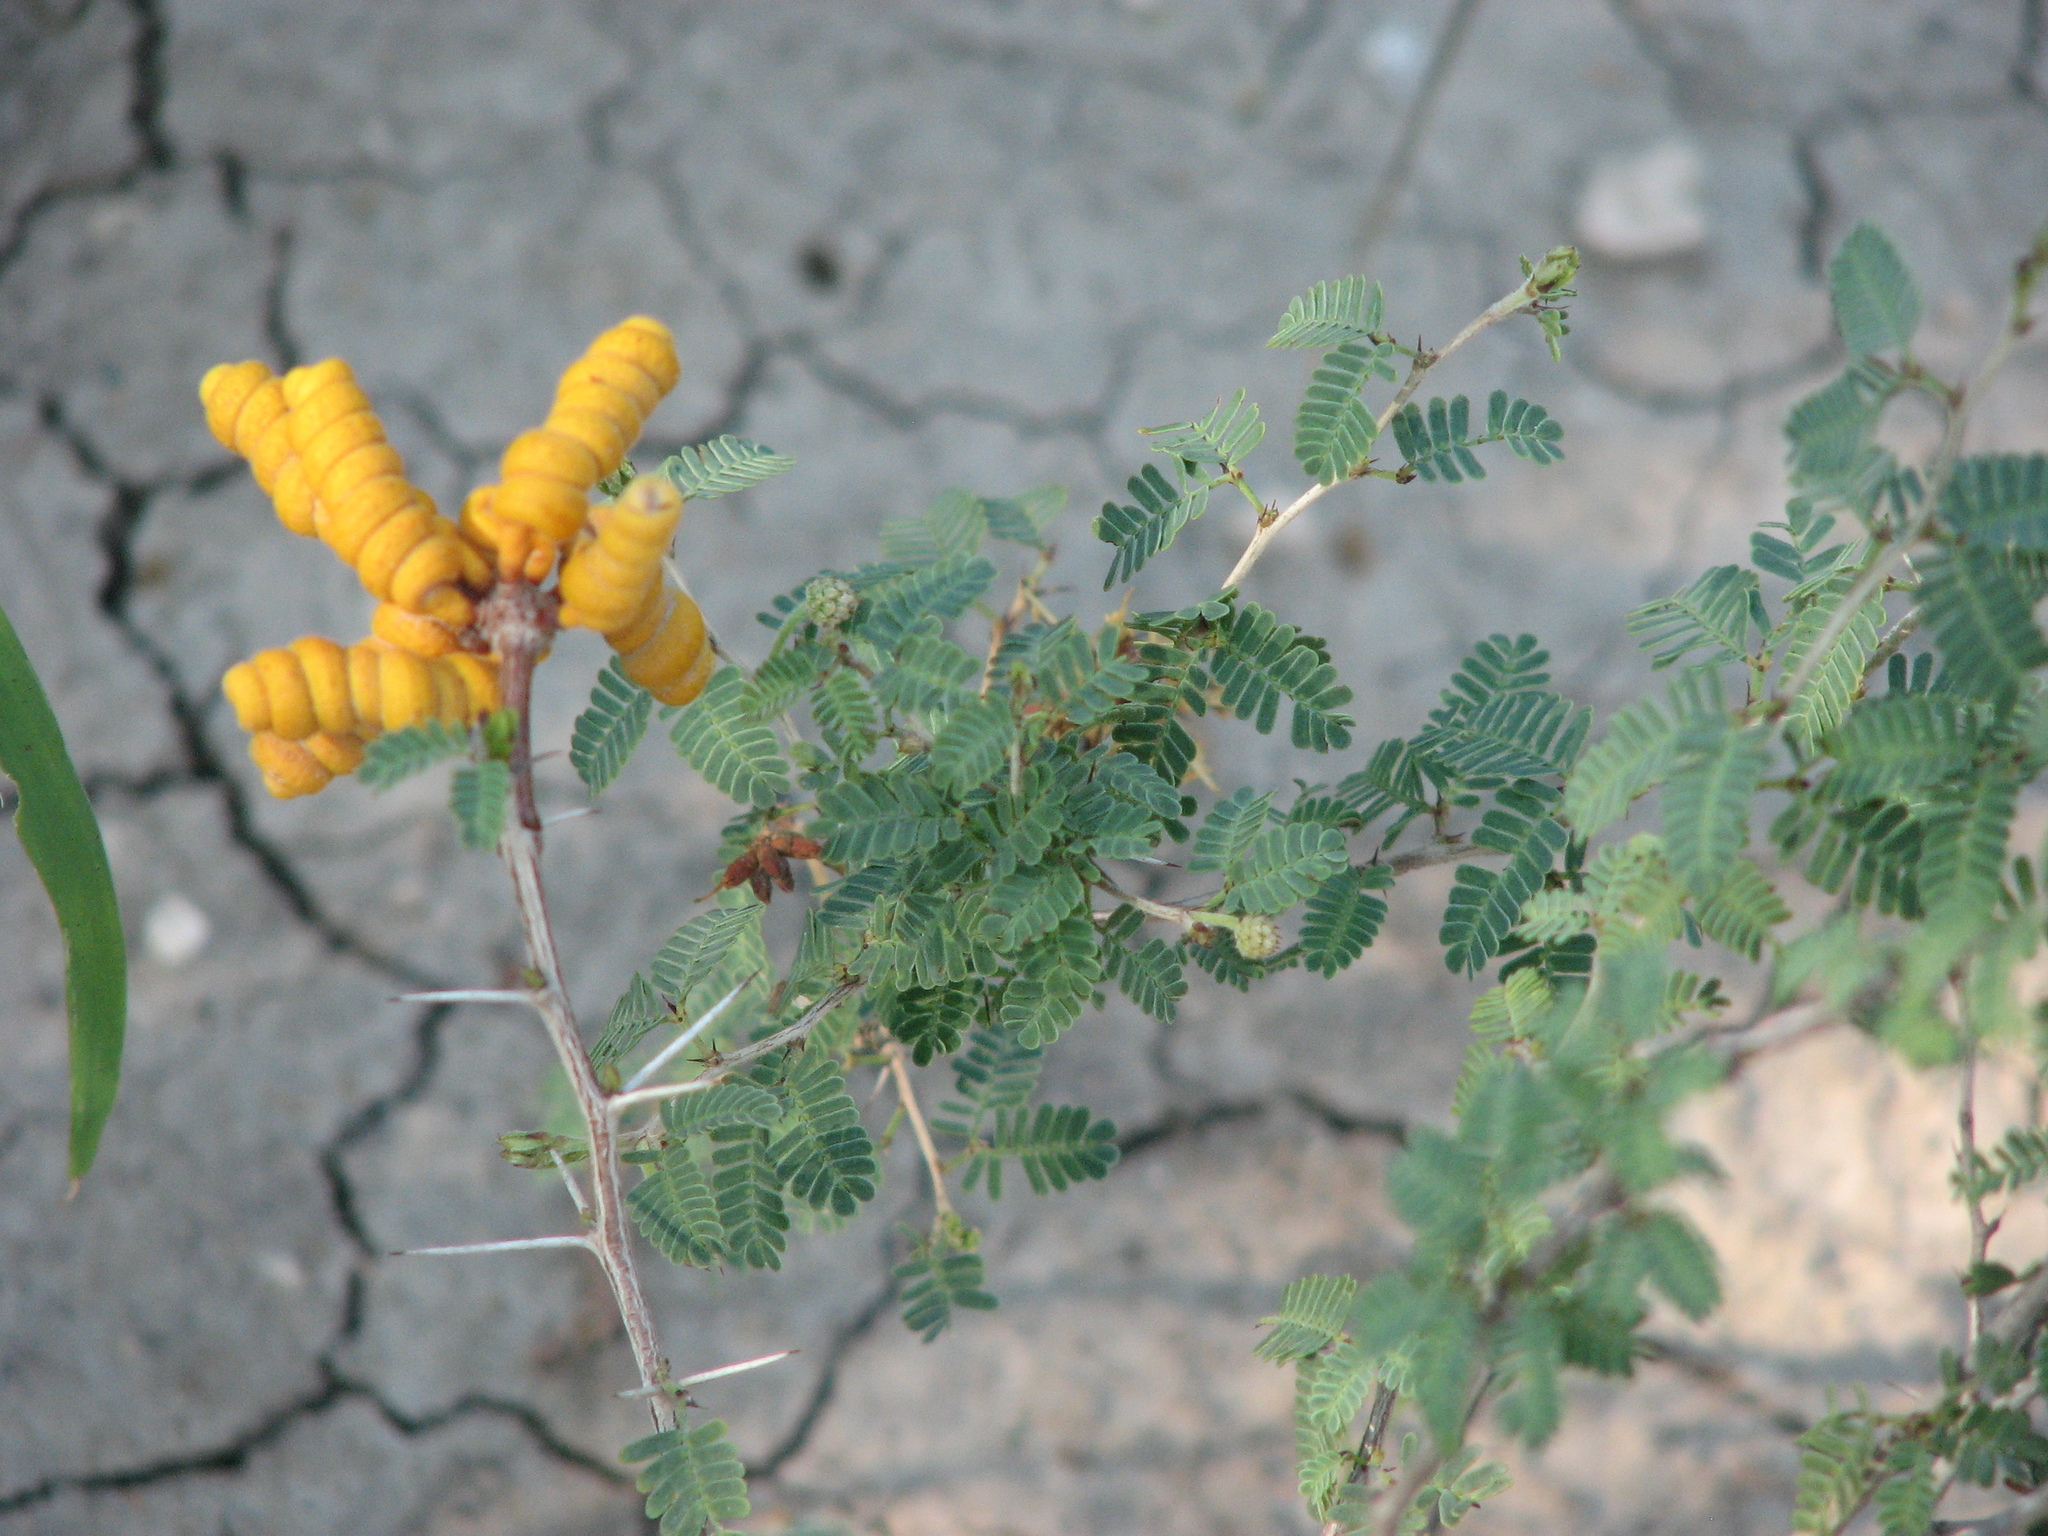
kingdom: Plantae
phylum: Tracheophyta
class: Magnoliopsida
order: Fabales
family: Fabaceae
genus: Prosopis
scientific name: Prosopis cinerascens
